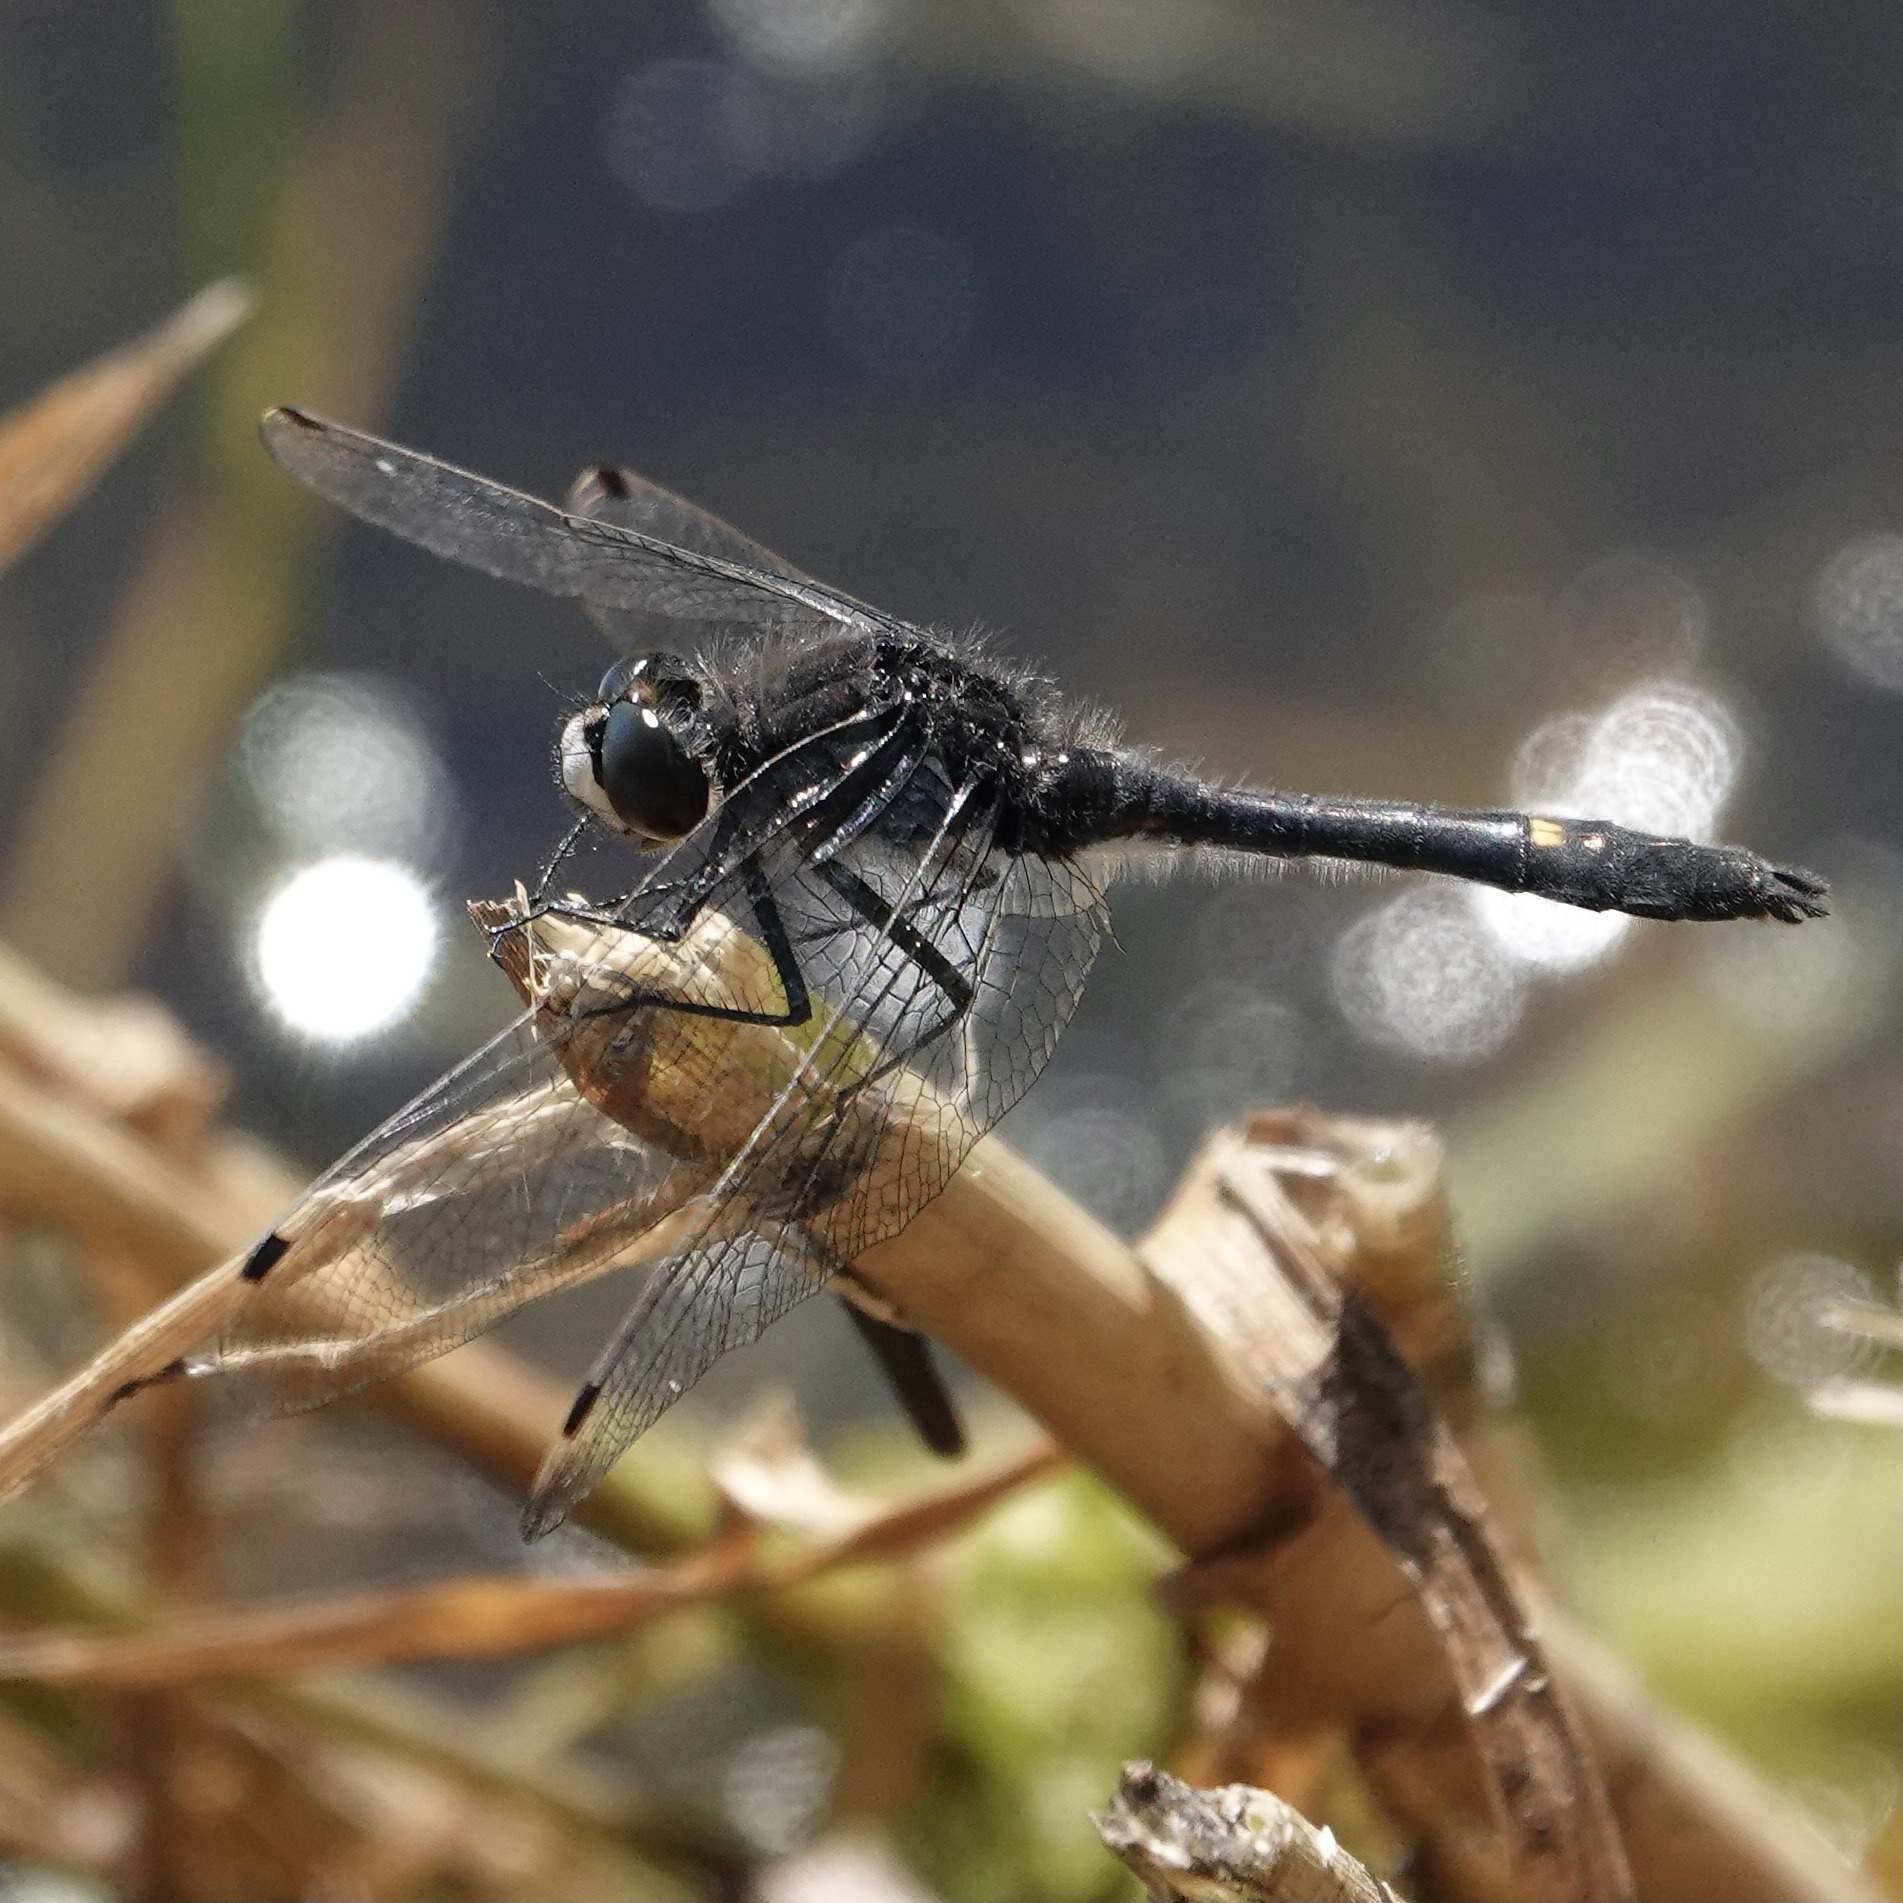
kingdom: Animalia
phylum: Arthropoda
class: Insecta
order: Odonata
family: Libellulidae
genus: Leucorrhinia
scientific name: Leucorrhinia intacta
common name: Dot-tailed whiteface
